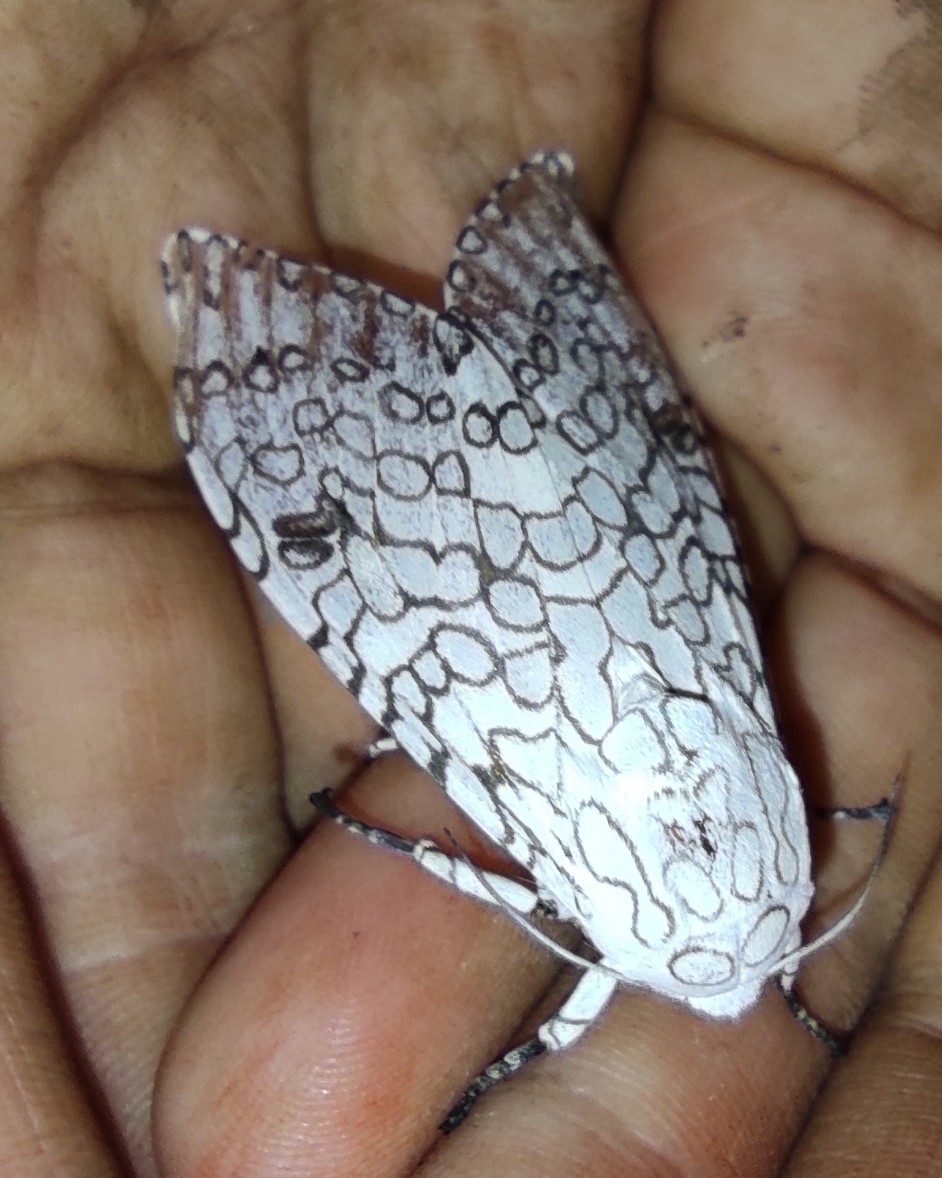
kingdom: Animalia
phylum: Arthropoda
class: Insecta
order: Lepidoptera
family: Erebidae
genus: Hypercompe
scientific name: Hypercompe icasia
